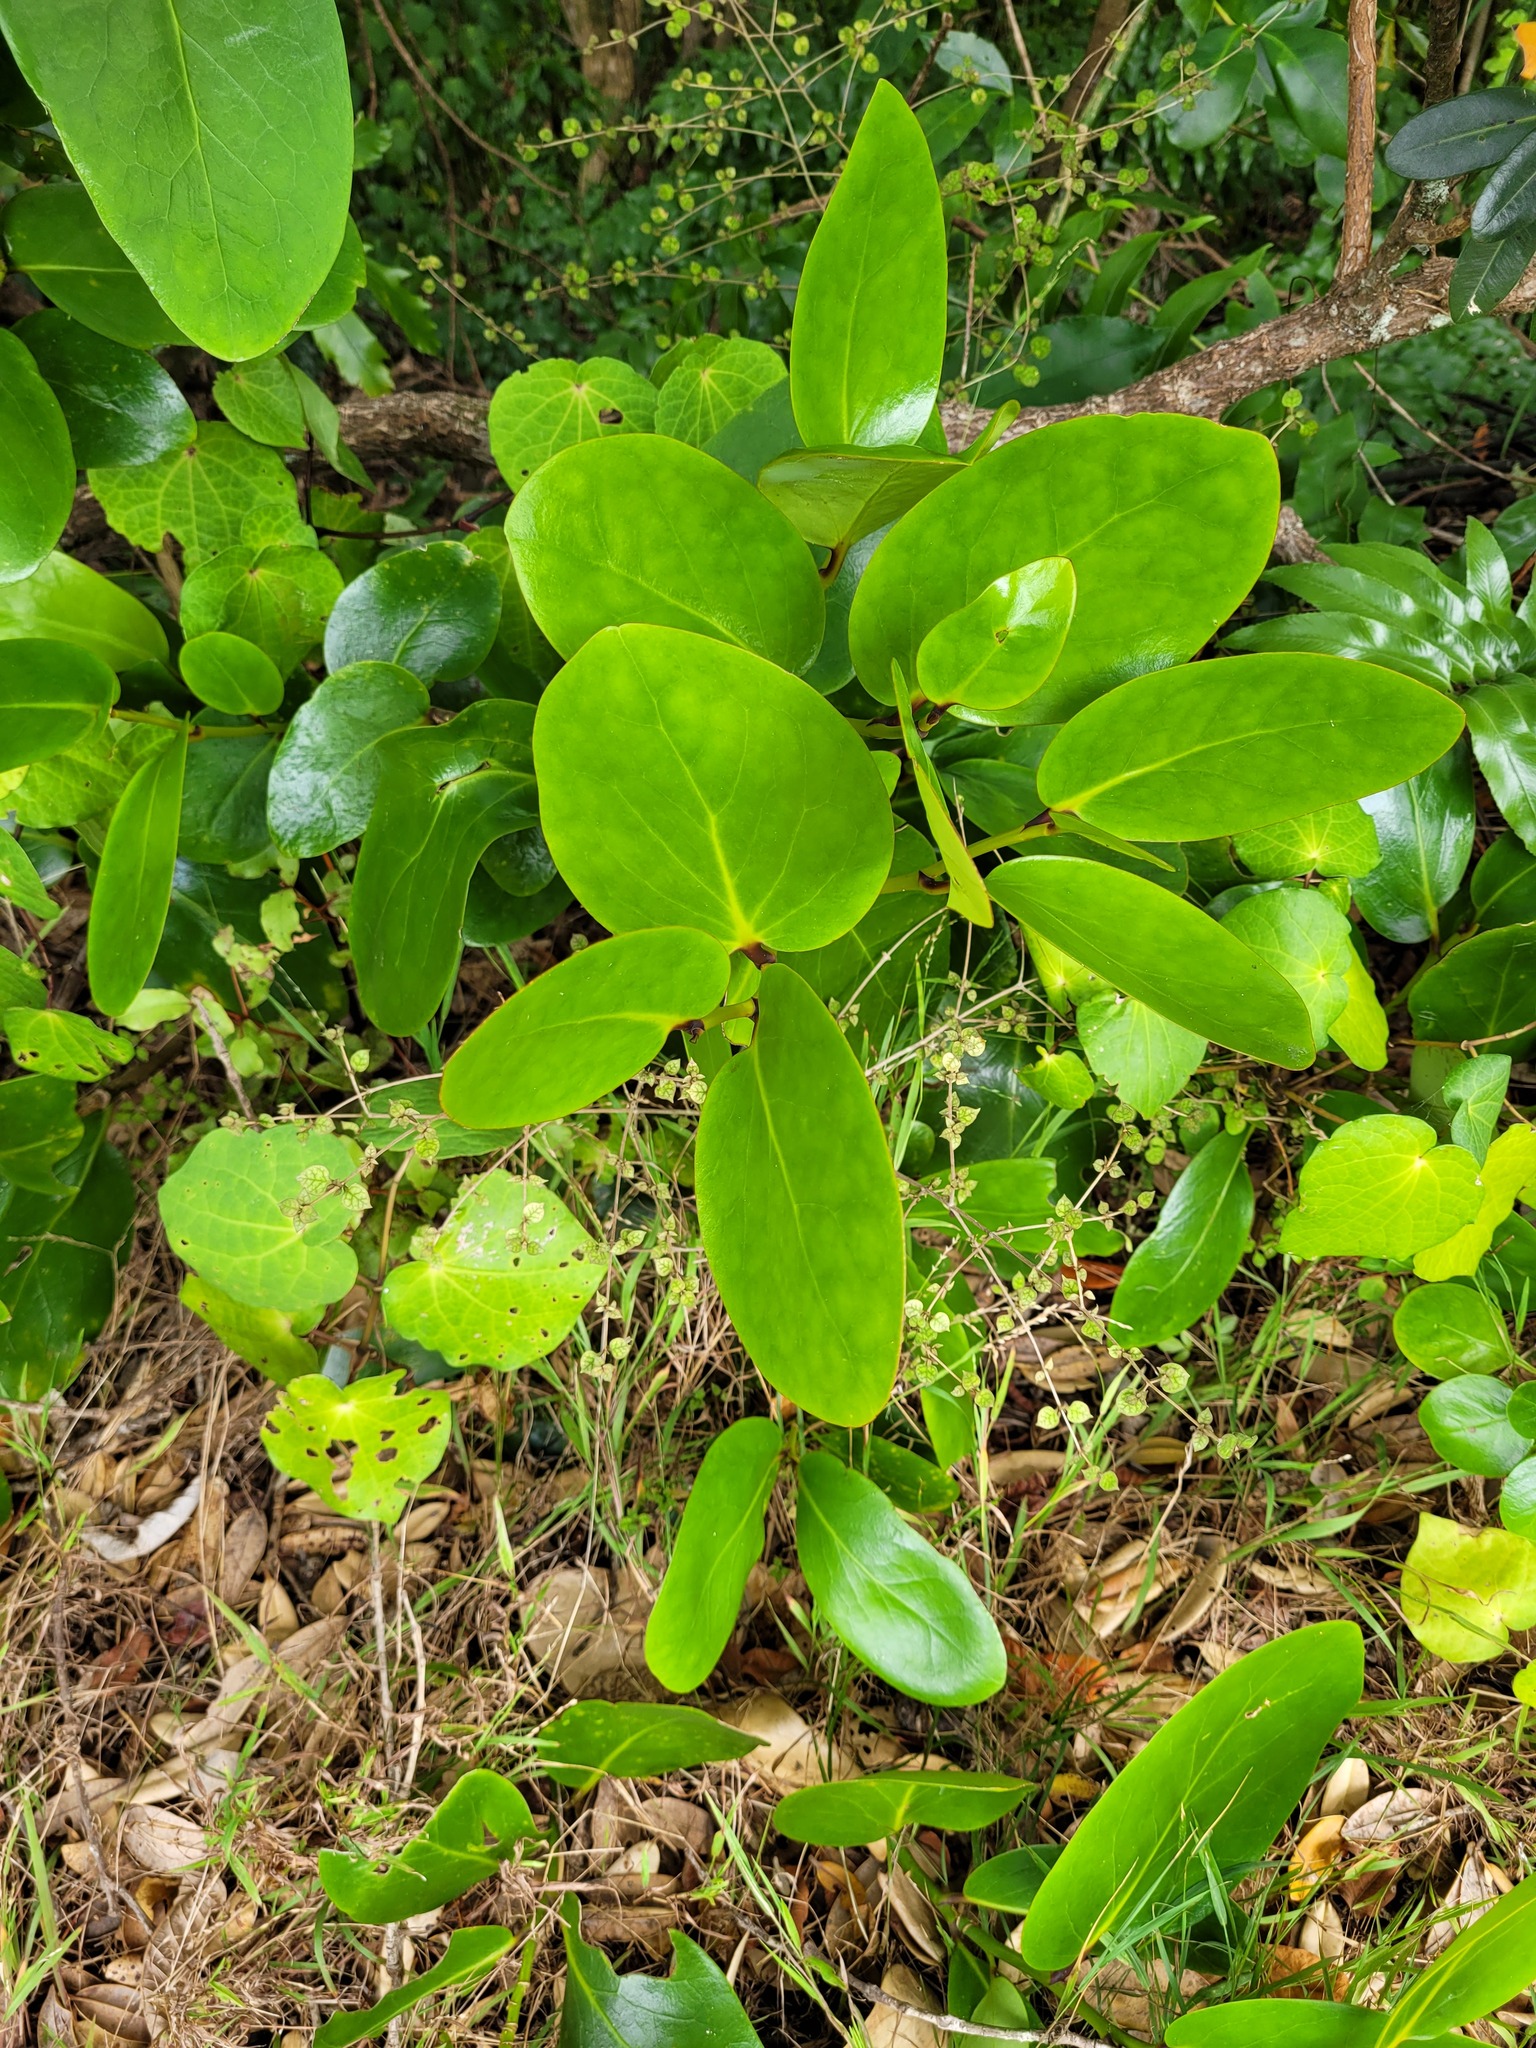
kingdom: Plantae
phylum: Tracheophyta
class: Magnoliopsida
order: Apiales
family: Griseliniaceae
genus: Griselinia
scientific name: Griselinia lucida
